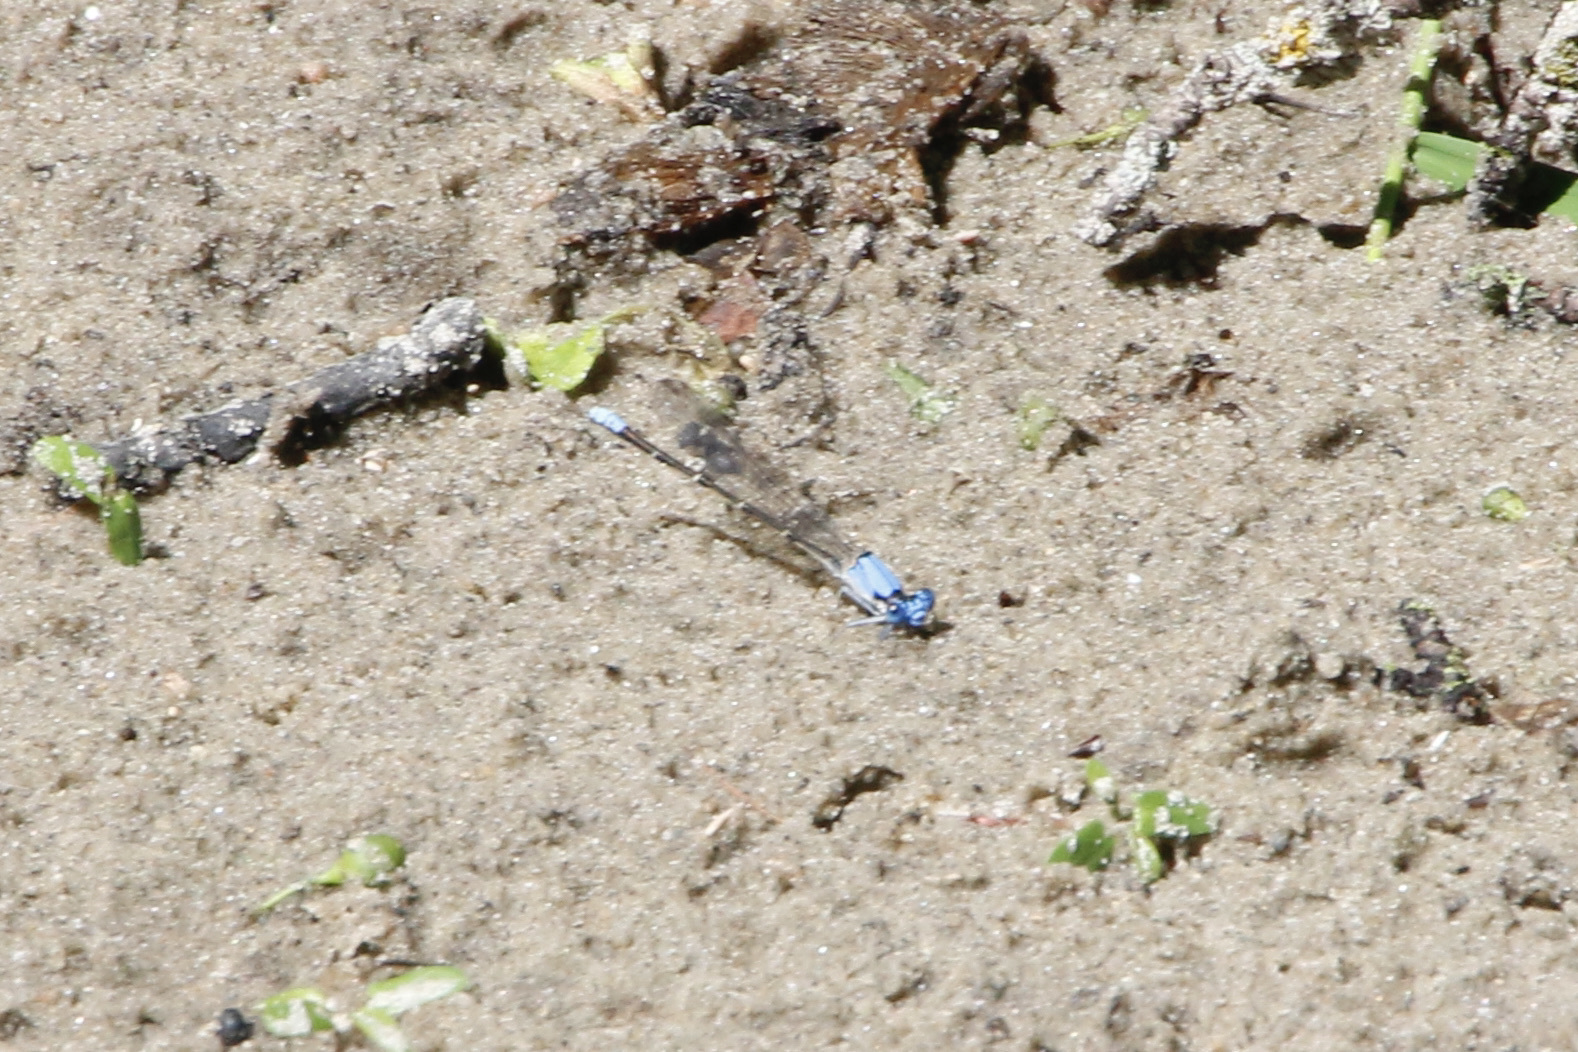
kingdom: Animalia
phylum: Arthropoda
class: Insecta
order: Odonata
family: Coenagrionidae
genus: Argia
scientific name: Argia apicalis
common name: Blue-fronted dancer
